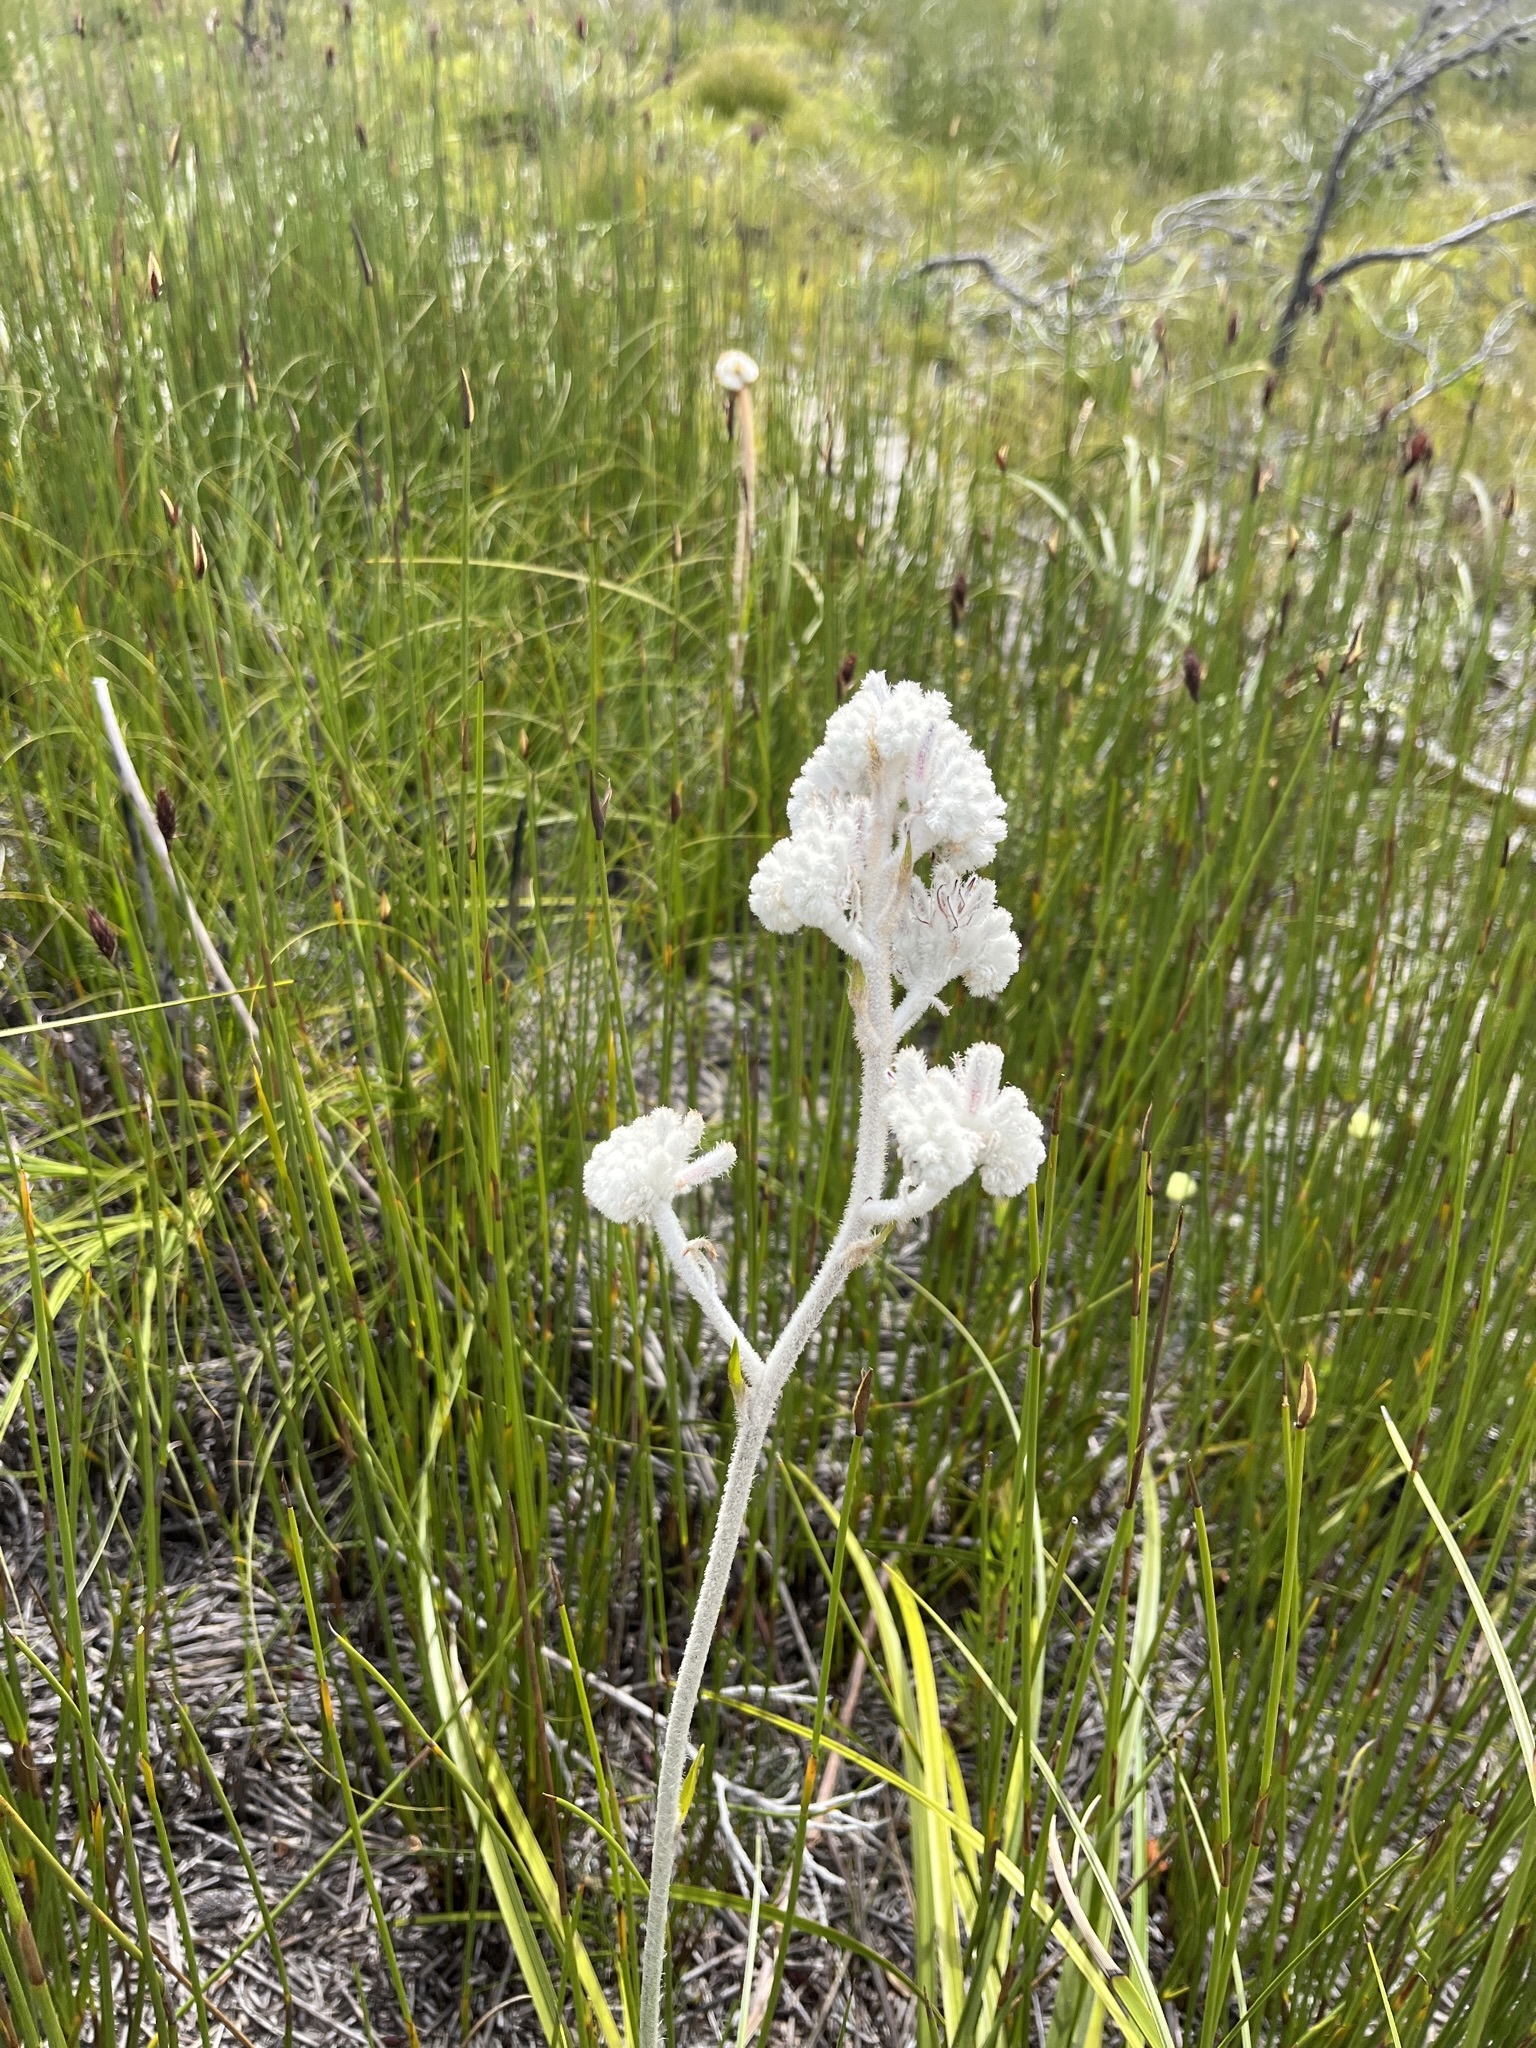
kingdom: Plantae
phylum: Tracheophyta
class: Liliopsida
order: Asparagales
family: Lanariaceae
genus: Lanaria
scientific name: Lanaria lanata
